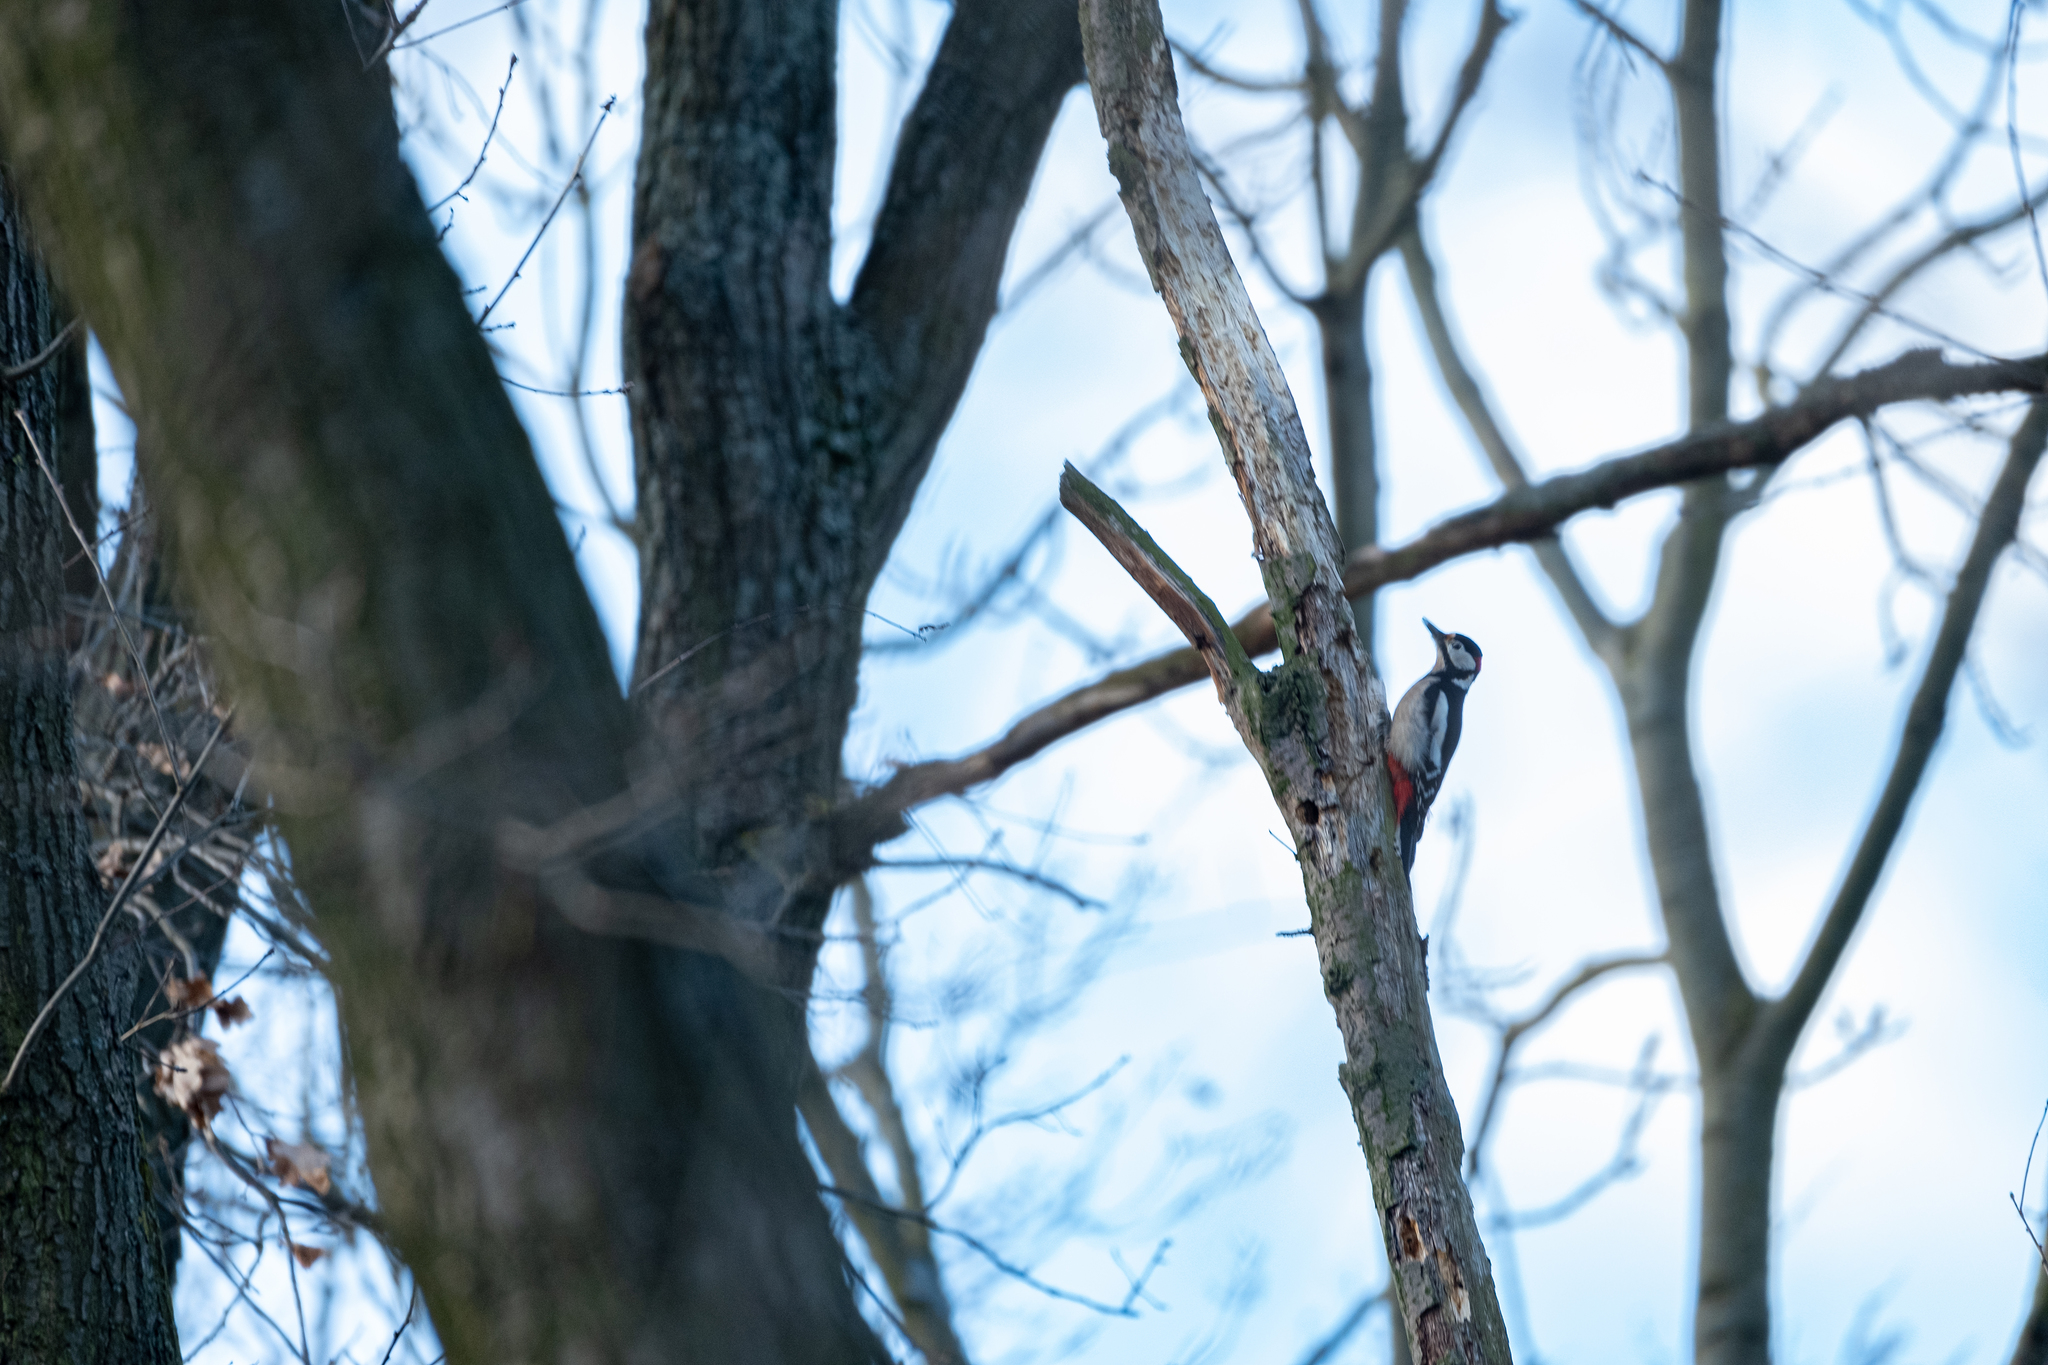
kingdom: Animalia
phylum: Chordata
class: Aves
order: Piciformes
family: Picidae
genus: Dendrocopos
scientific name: Dendrocopos major
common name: Great spotted woodpecker
